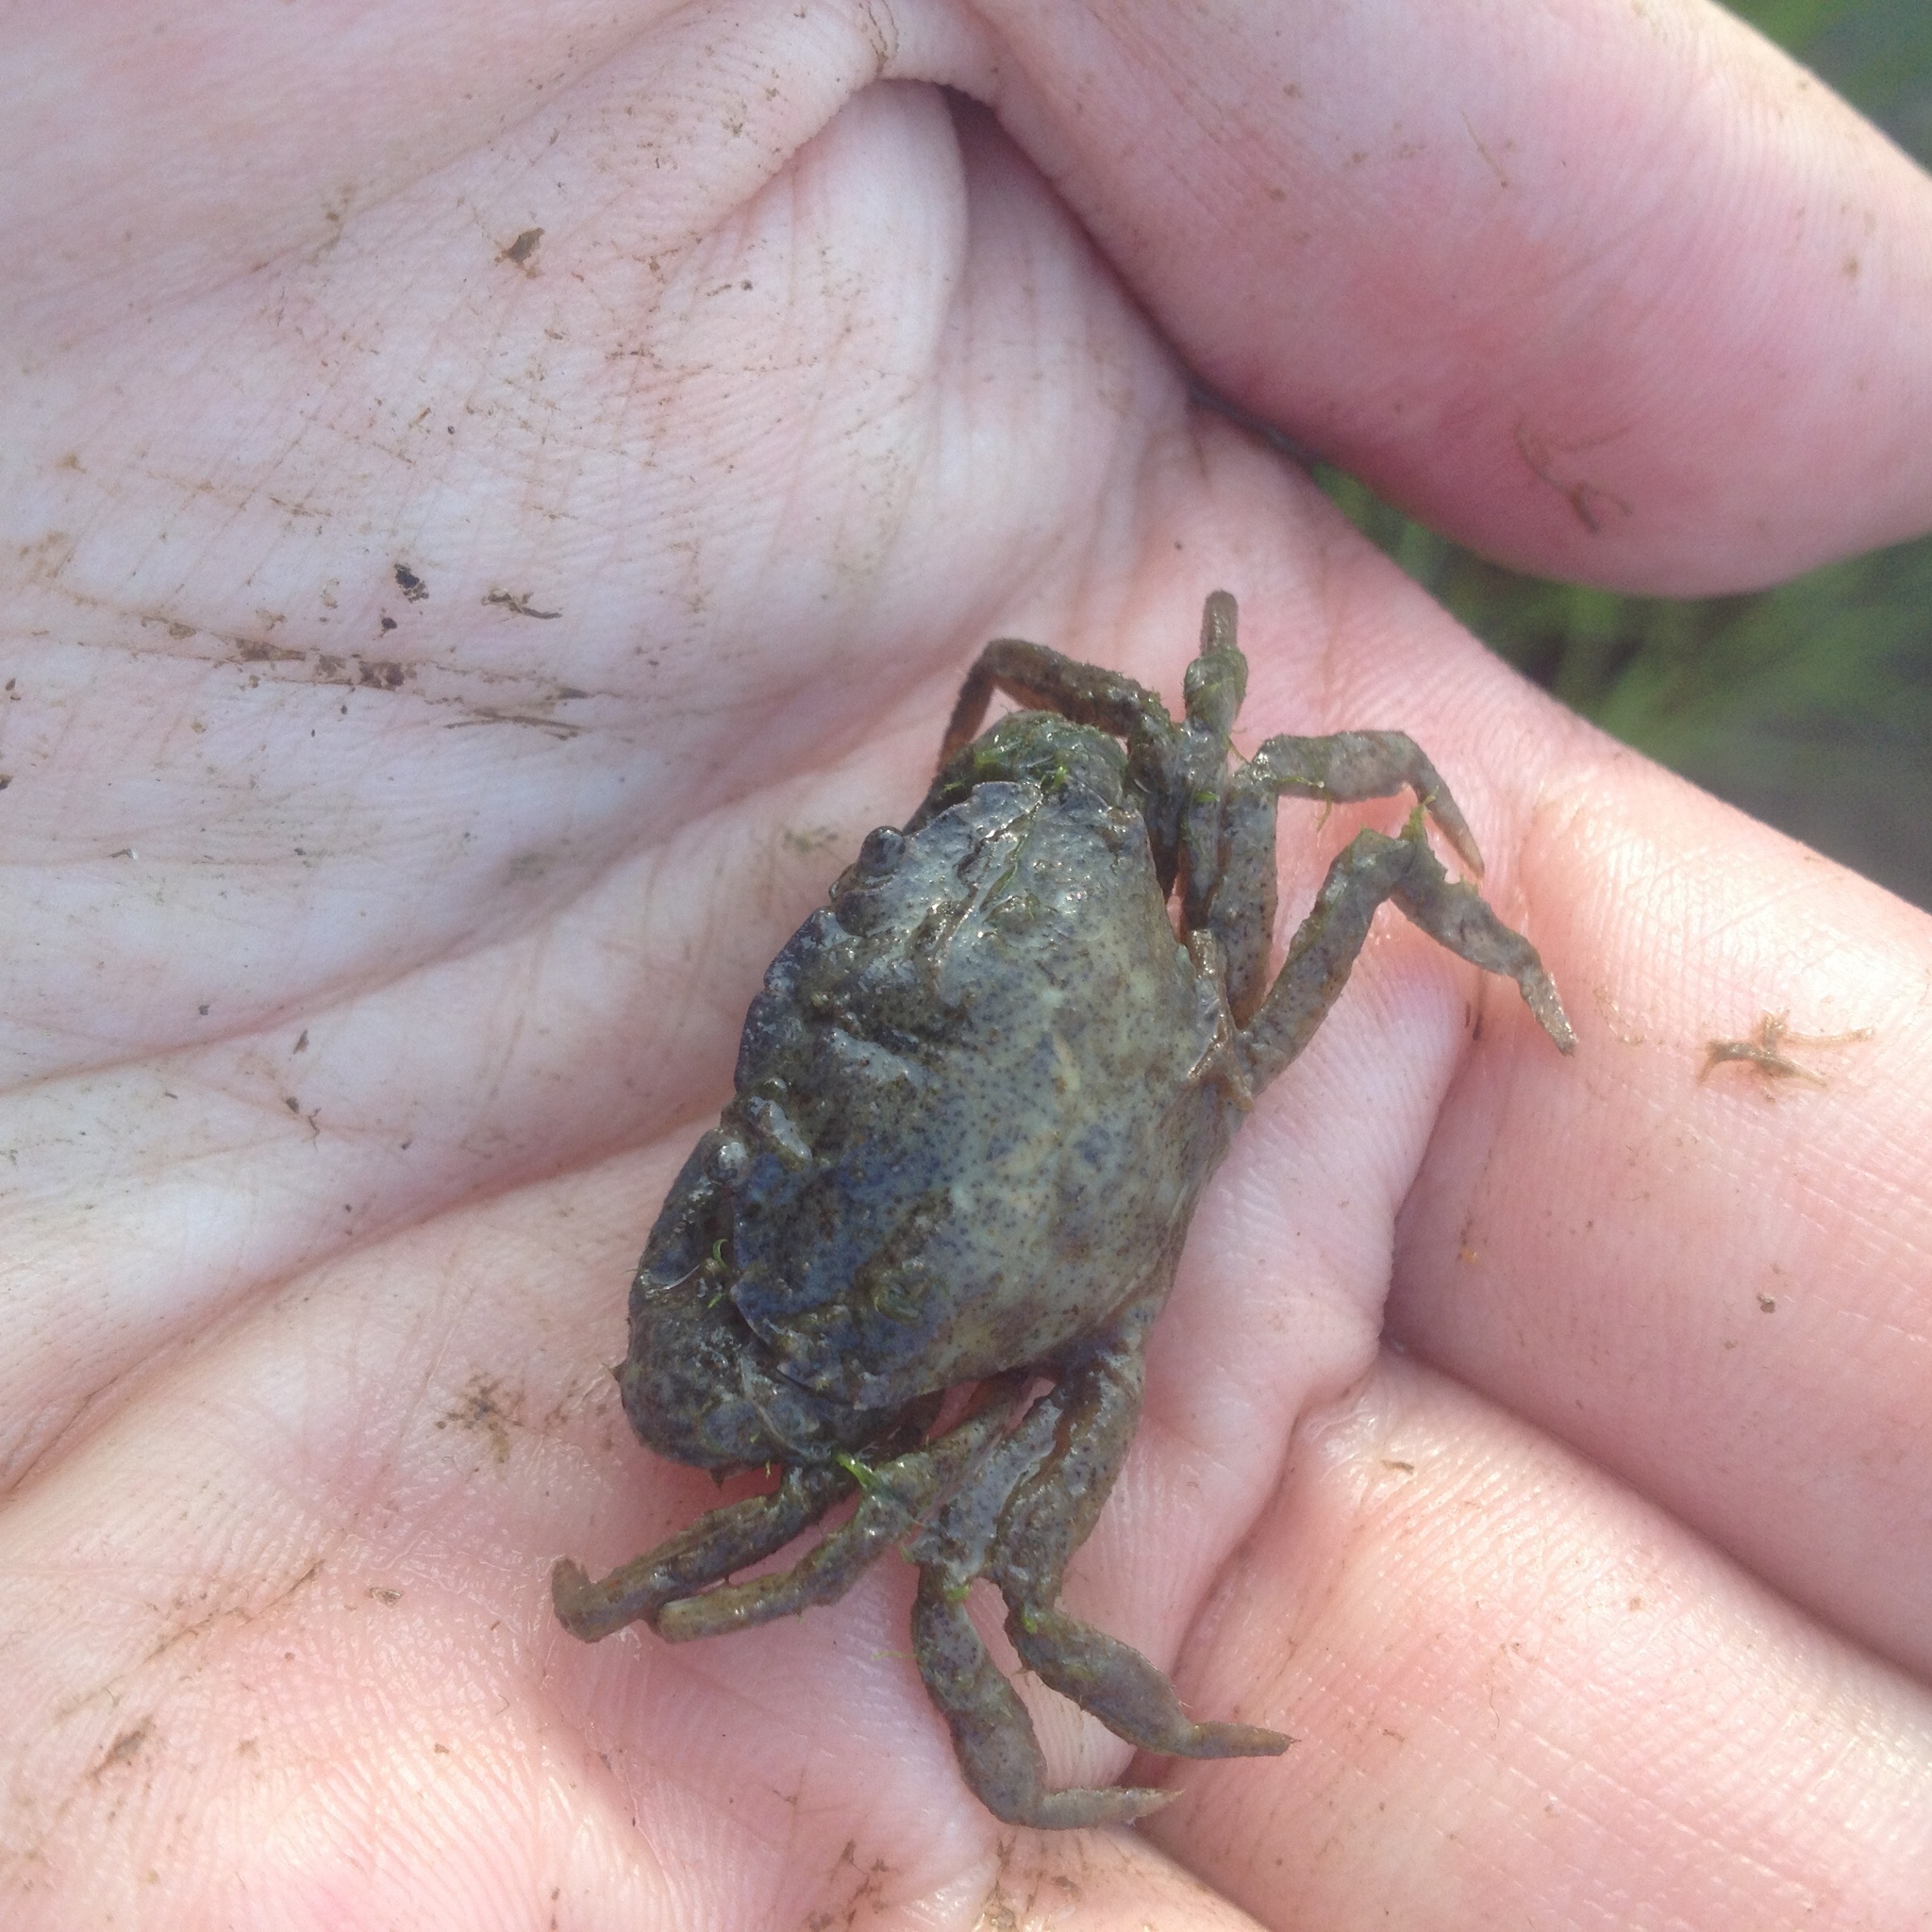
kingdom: Animalia
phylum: Arthropoda
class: Malacostraca
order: Decapoda
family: Carcinidae
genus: Carcinus
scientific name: Carcinus maenas
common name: European green crab
